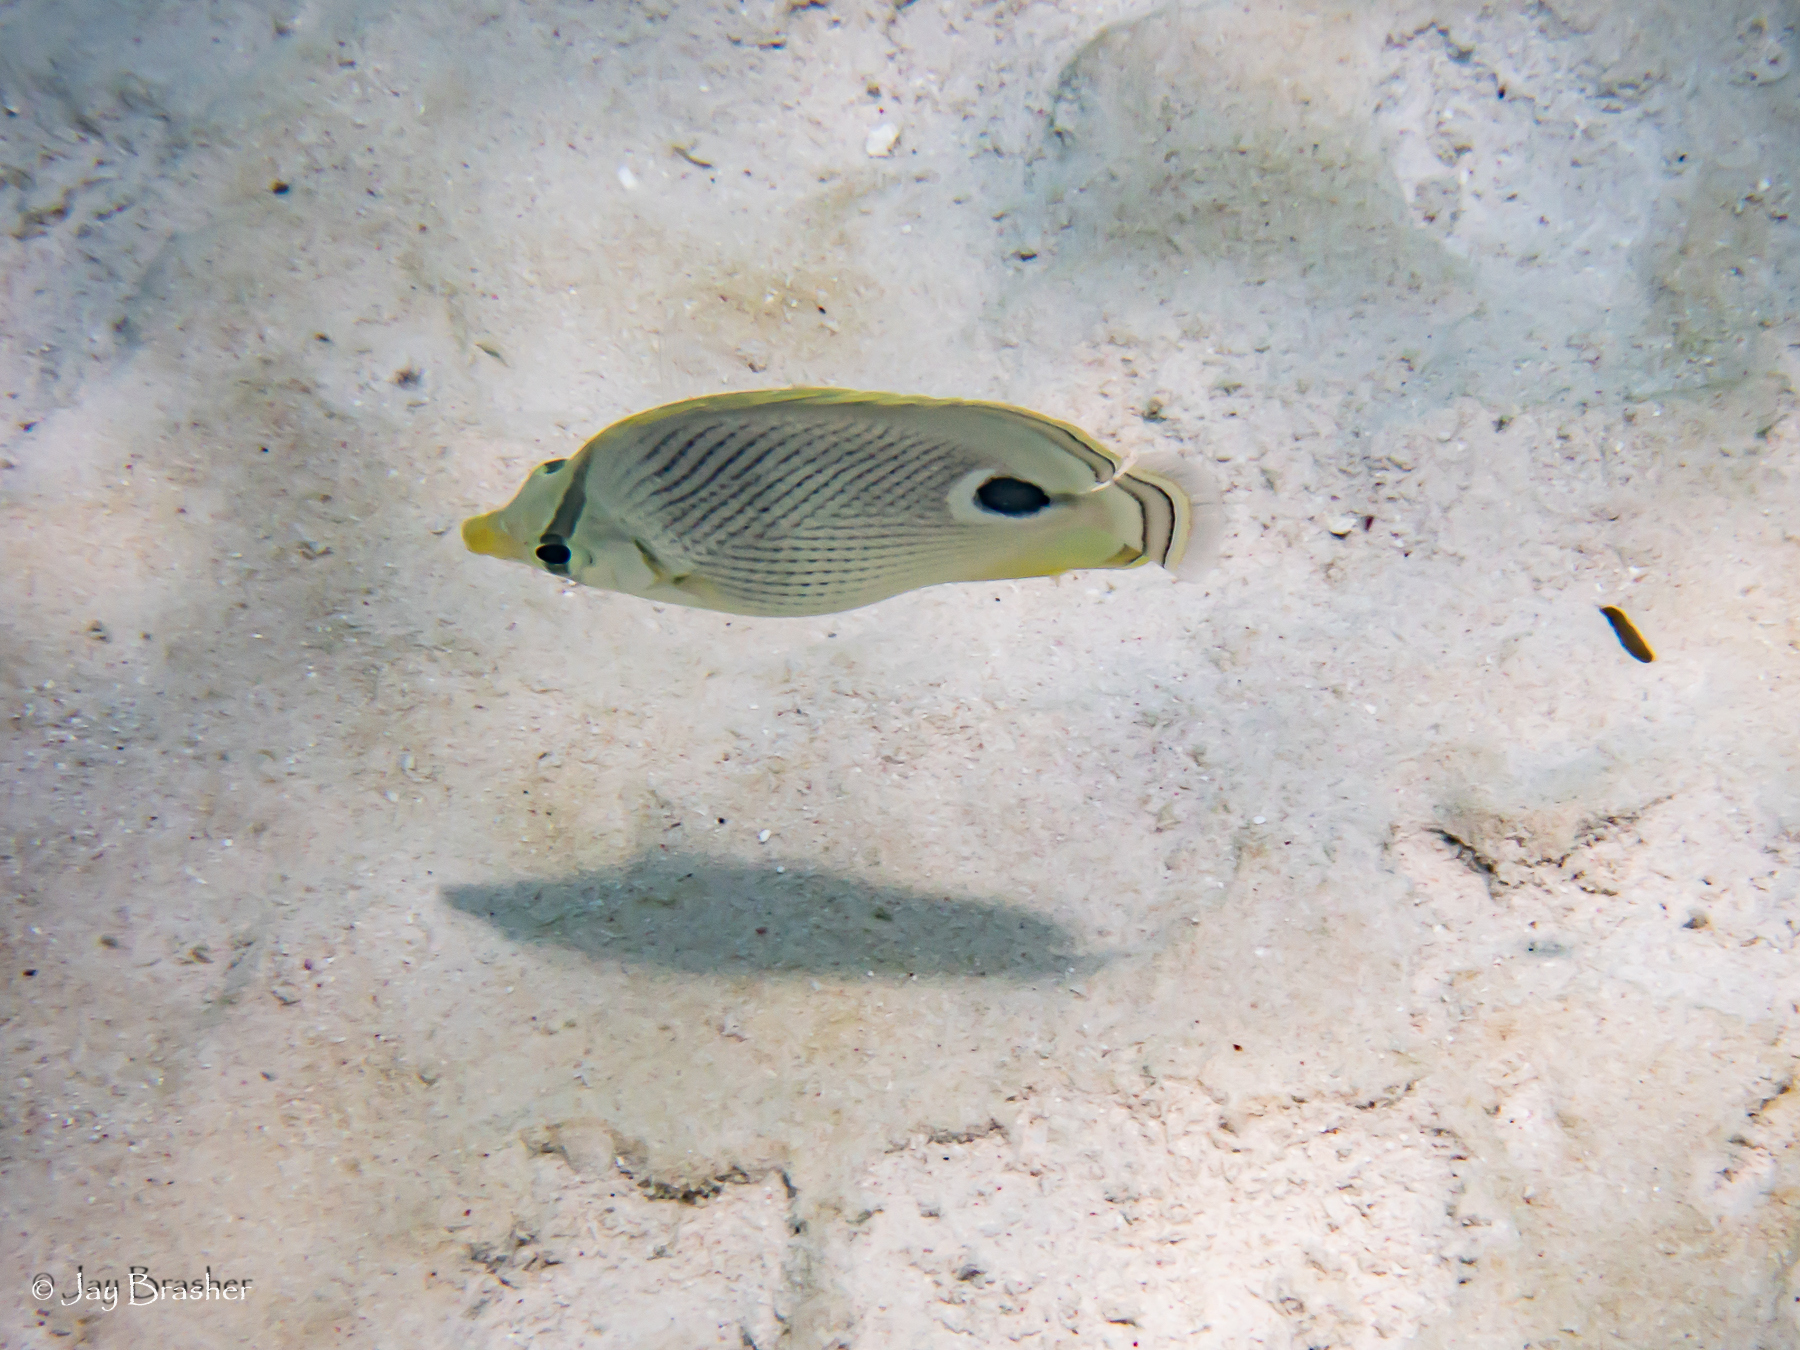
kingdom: Animalia
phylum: Chordata
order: Perciformes
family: Chaetodontidae
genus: Chaetodon
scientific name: Chaetodon capistratus
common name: Kete
